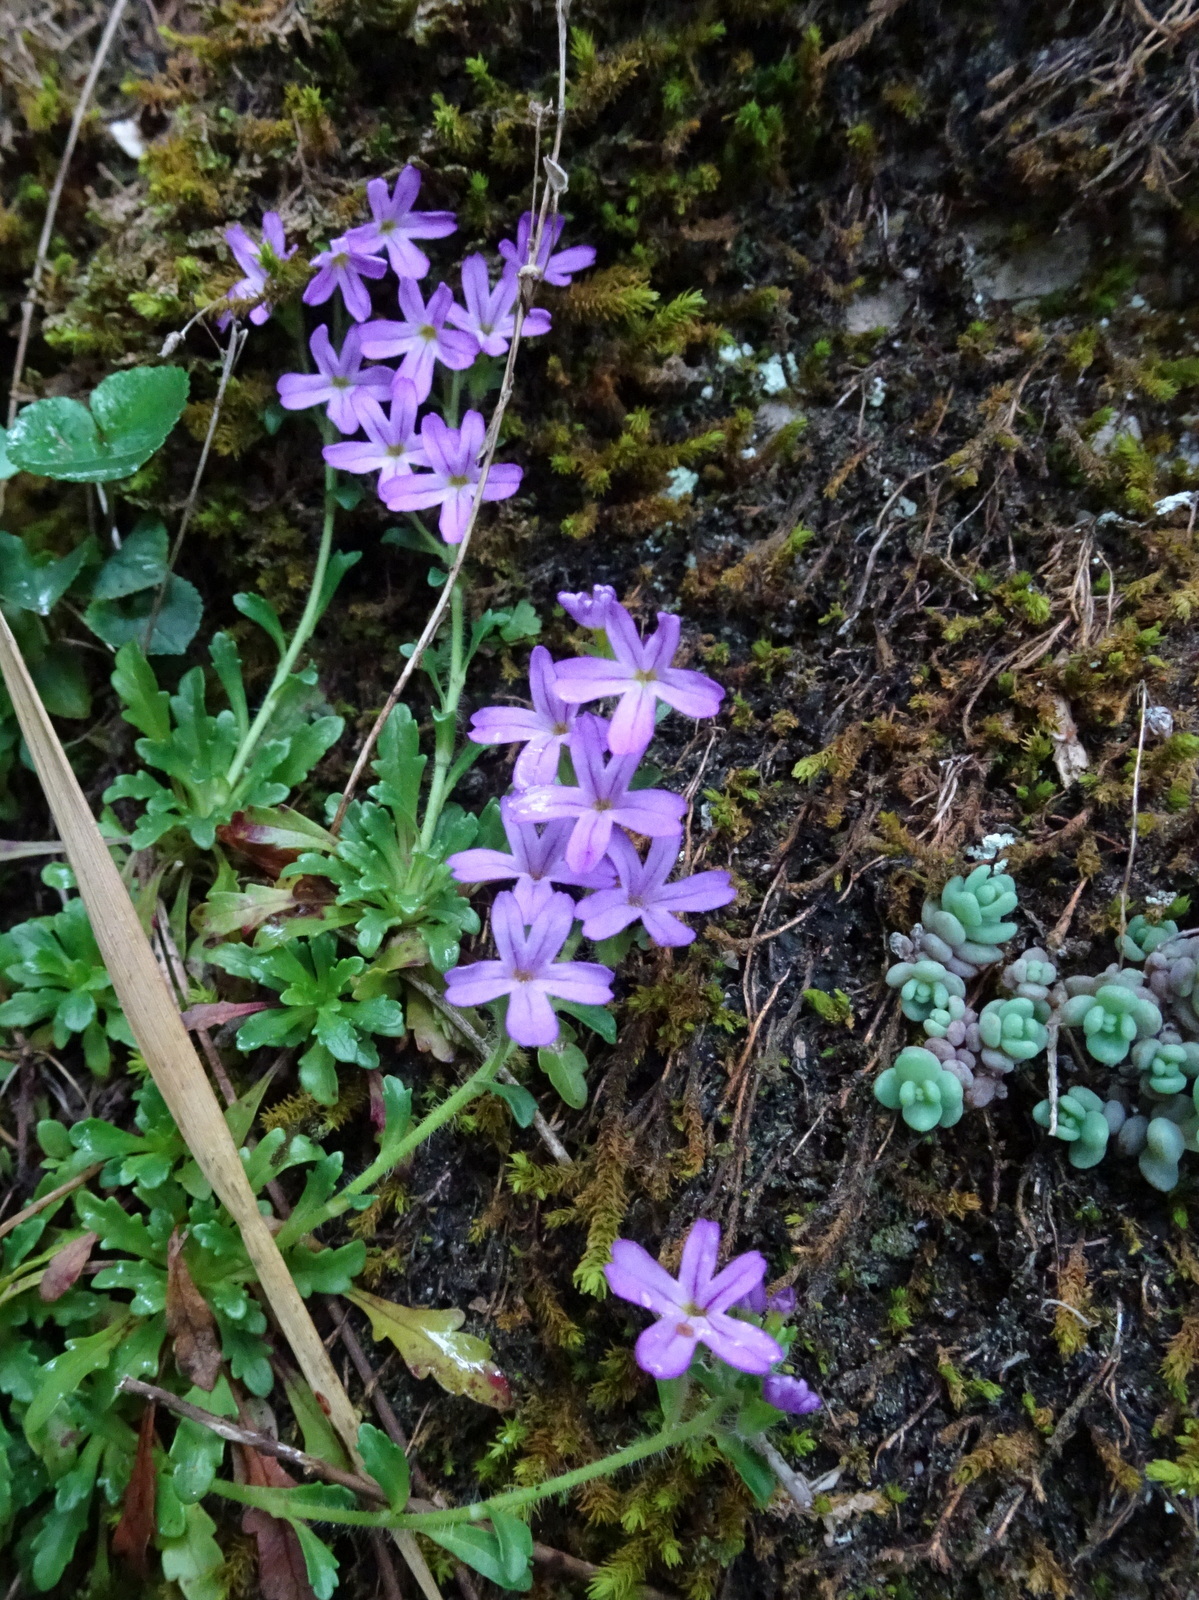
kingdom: Plantae
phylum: Tracheophyta
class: Magnoliopsida
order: Lamiales
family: Plantaginaceae
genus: Erinus
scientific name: Erinus alpinus
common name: Fairy foxglove
